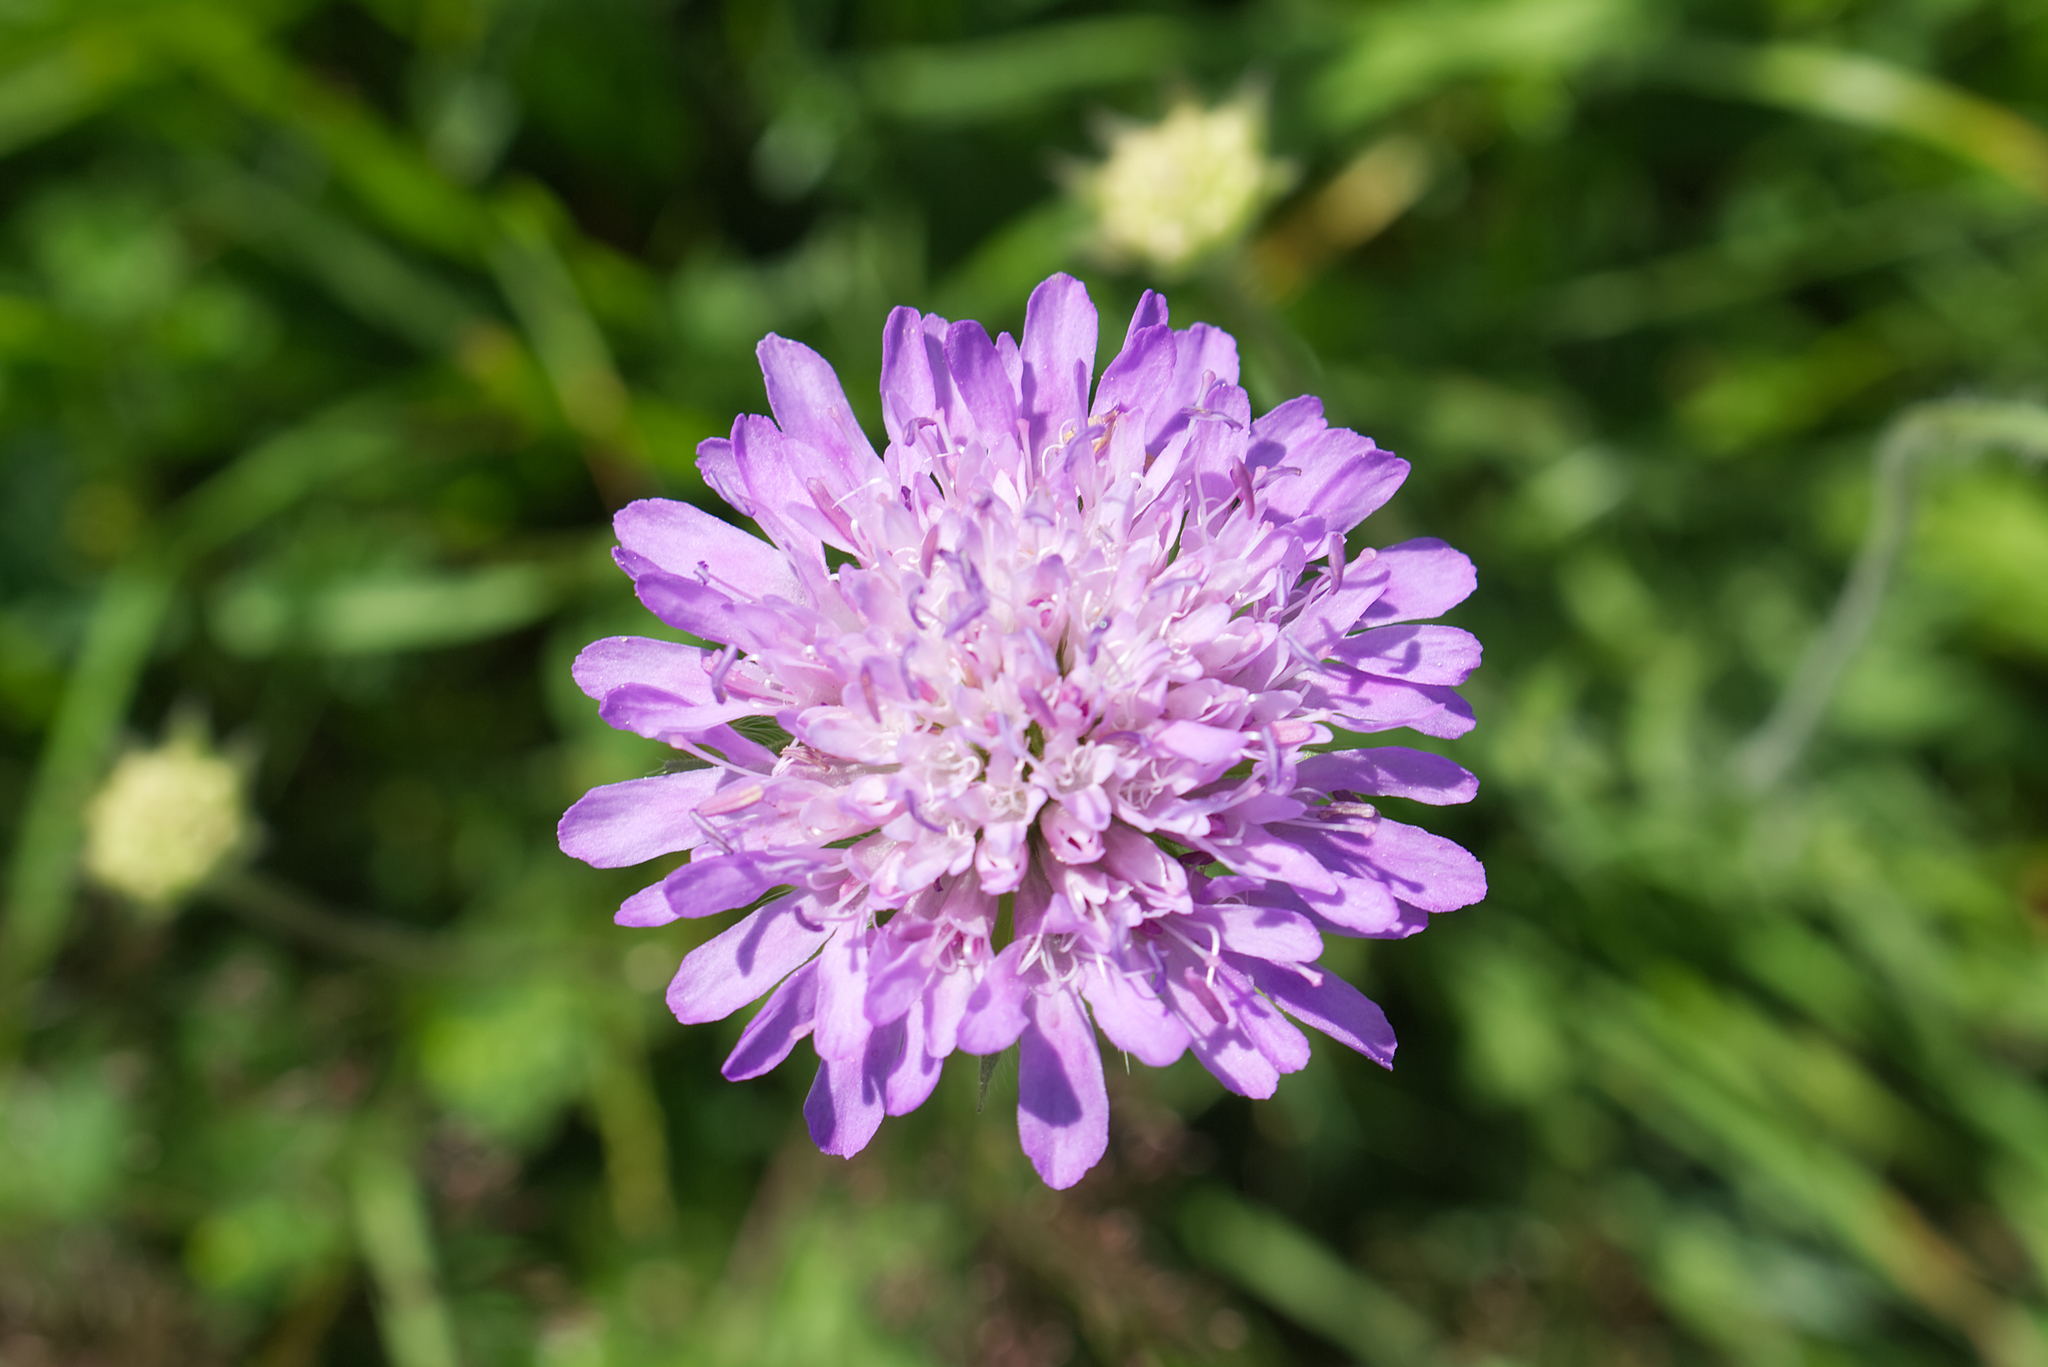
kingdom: Plantae
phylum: Tracheophyta
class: Magnoliopsida
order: Dipsacales
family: Caprifoliaceae
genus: Knautia
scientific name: Knautia arvensis
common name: Field scabiosa
